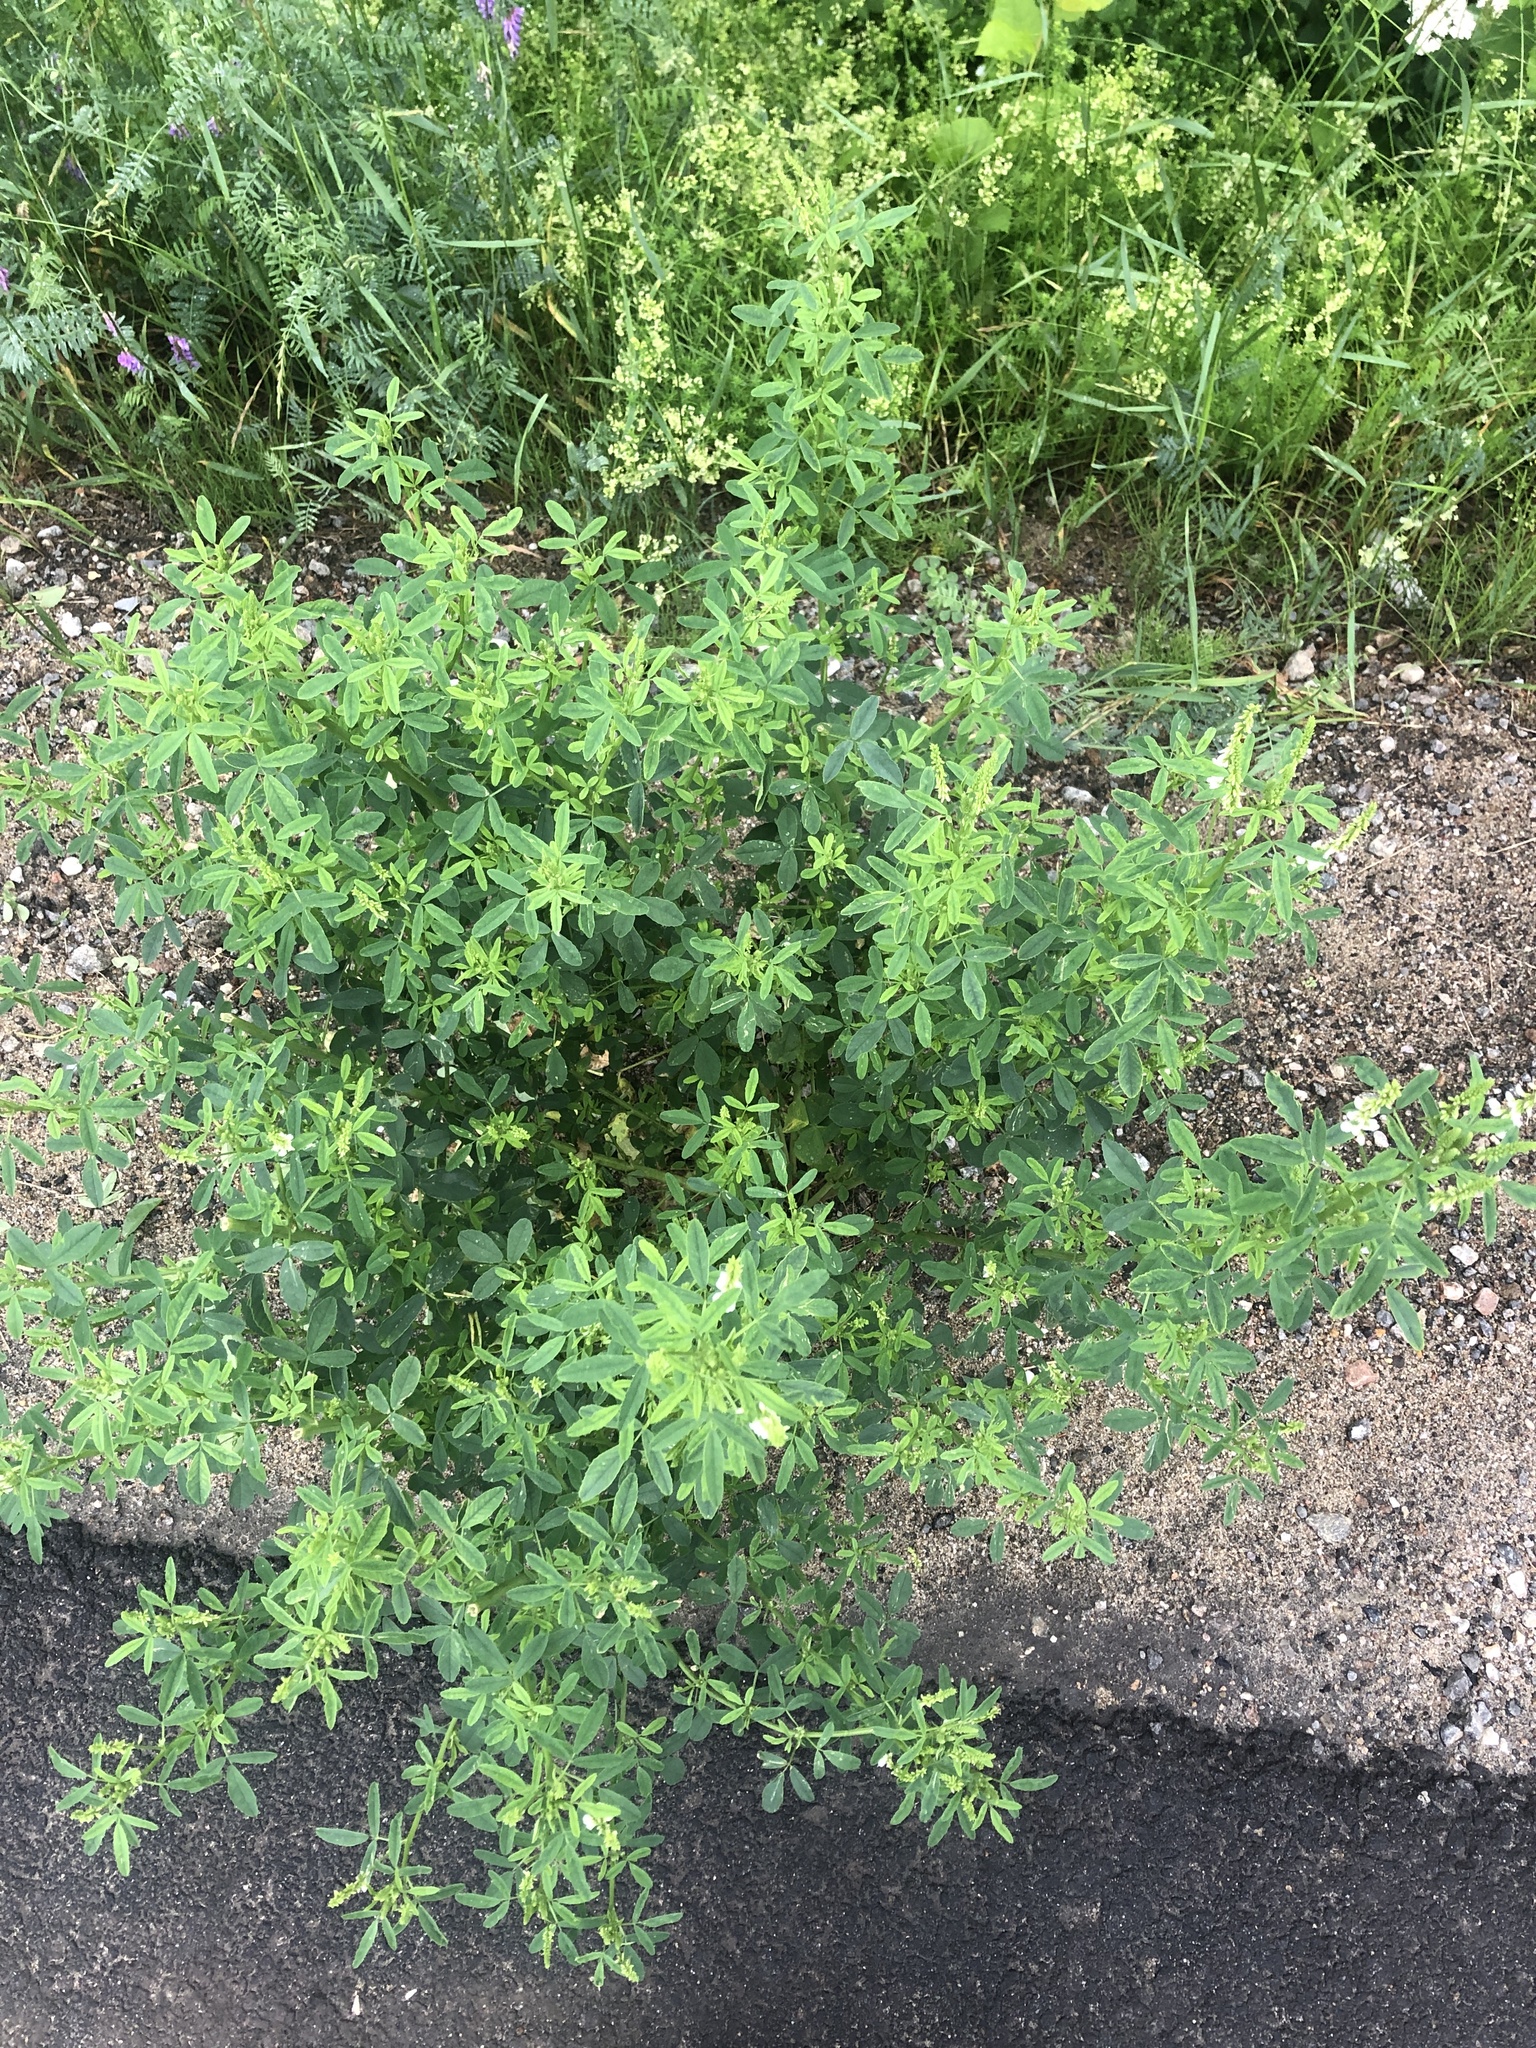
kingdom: Plantae
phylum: Tracheophyta
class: Magnoliopsida
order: Fabales
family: Fabaceae
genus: Melilotus
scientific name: Melilotus albus
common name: White melilot
